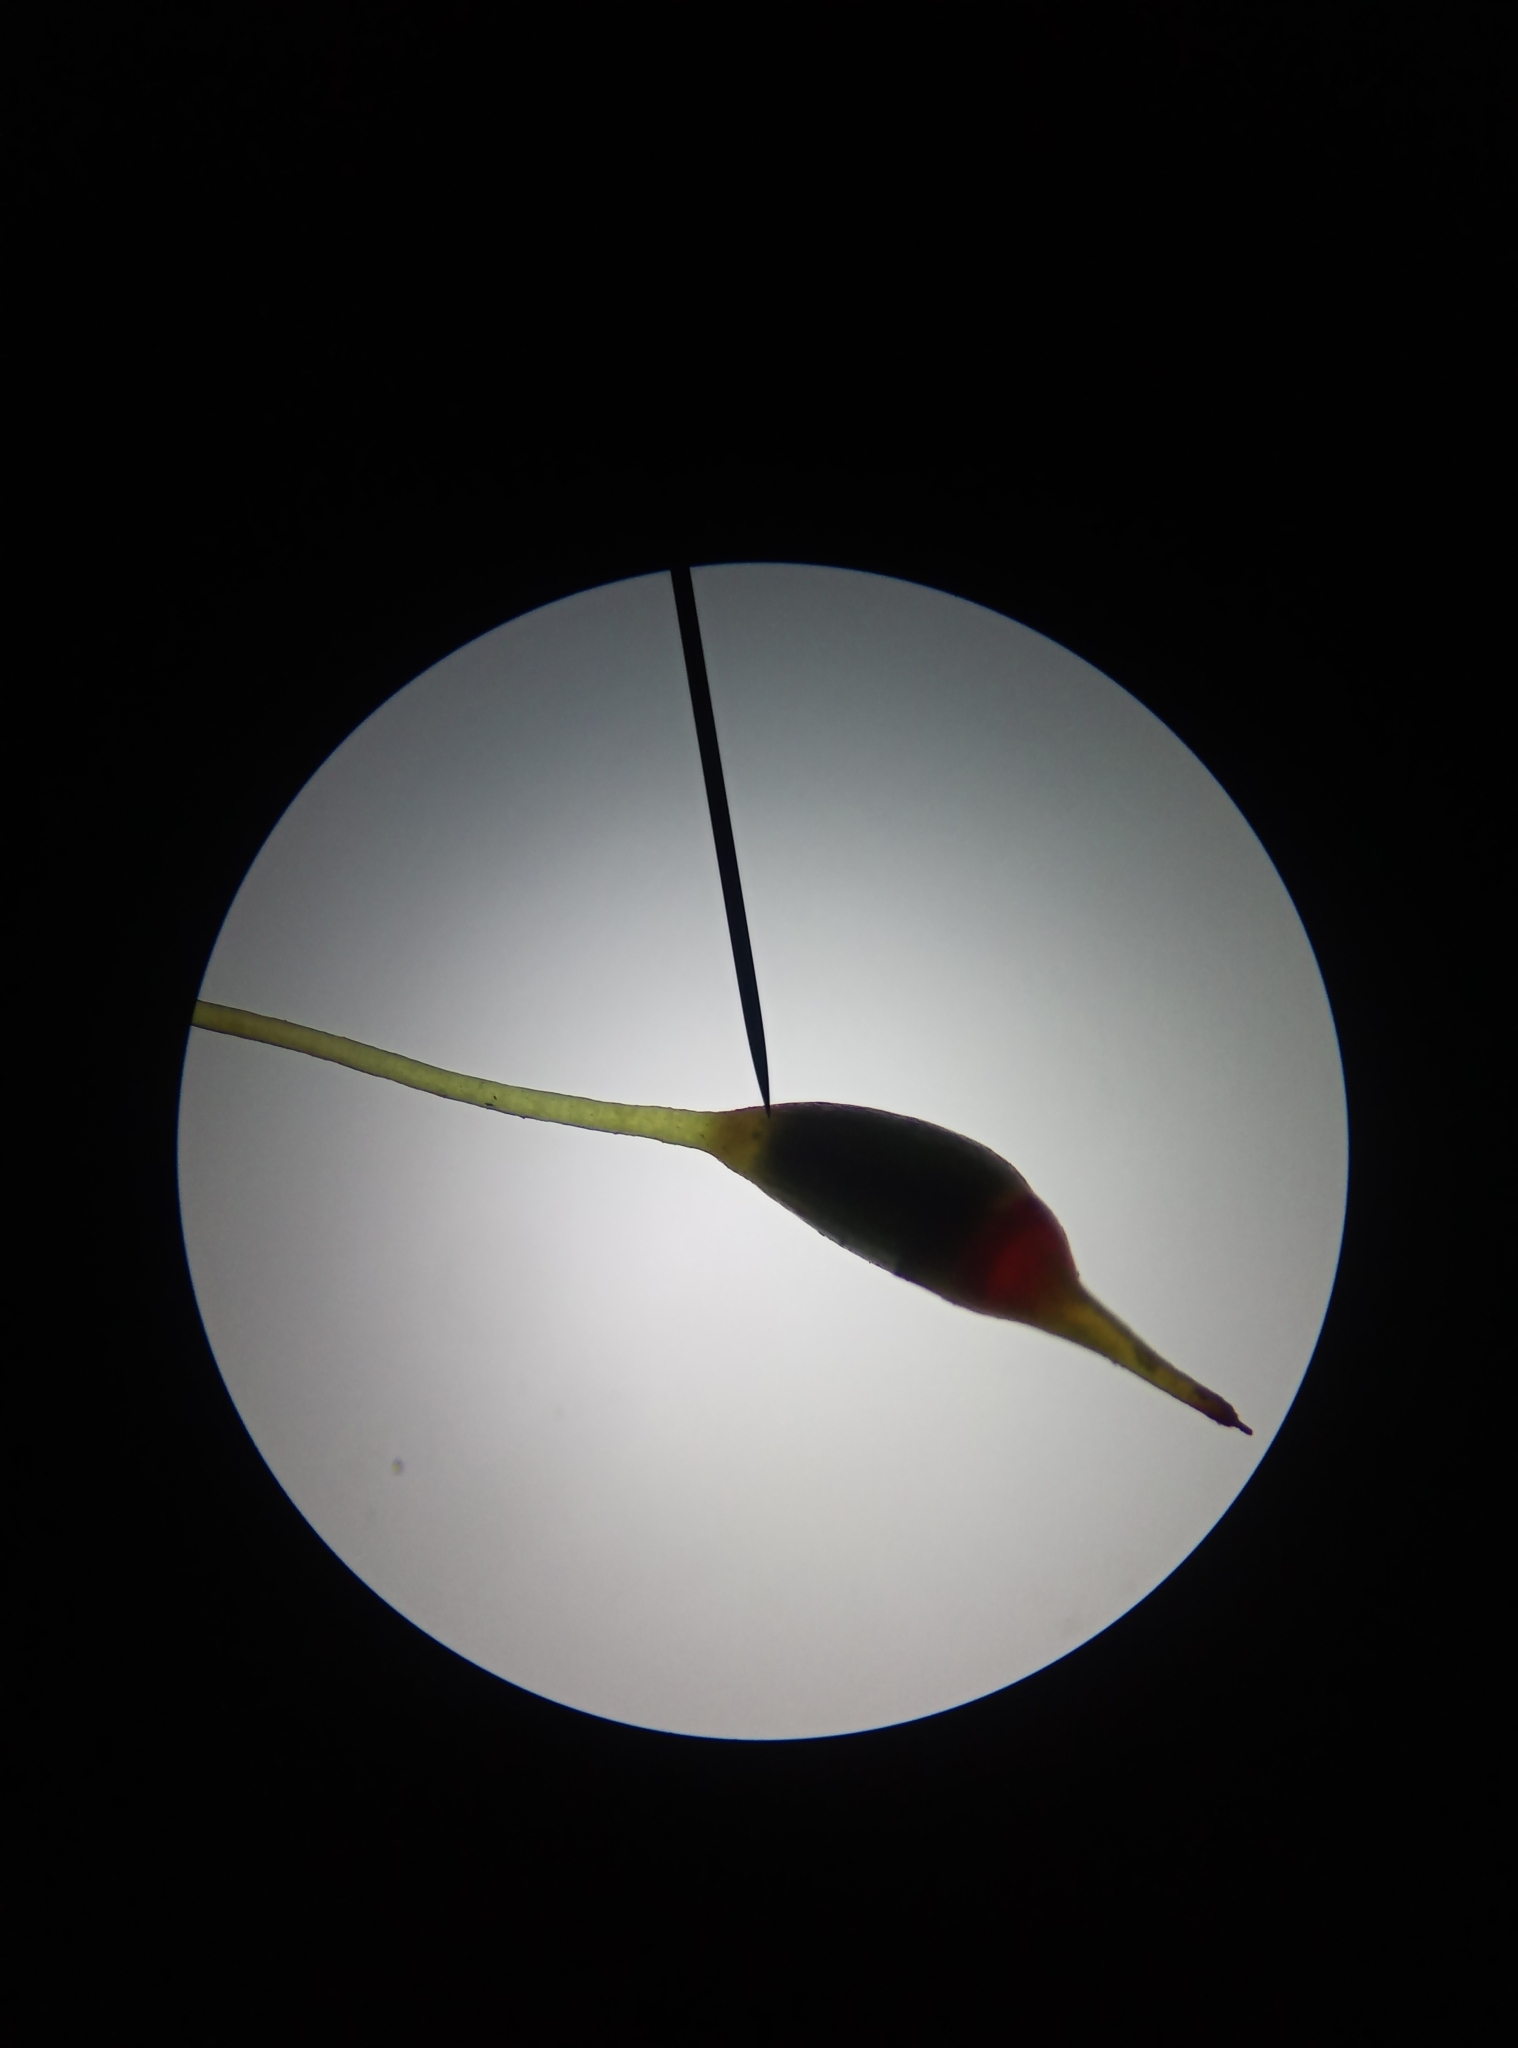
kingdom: Plantae
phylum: Bryophyta
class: Bryopsida
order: Dicranales
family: Dicranellaceae
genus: Dicranella
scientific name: Dicranella heteromalla
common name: Silky forklet moss
